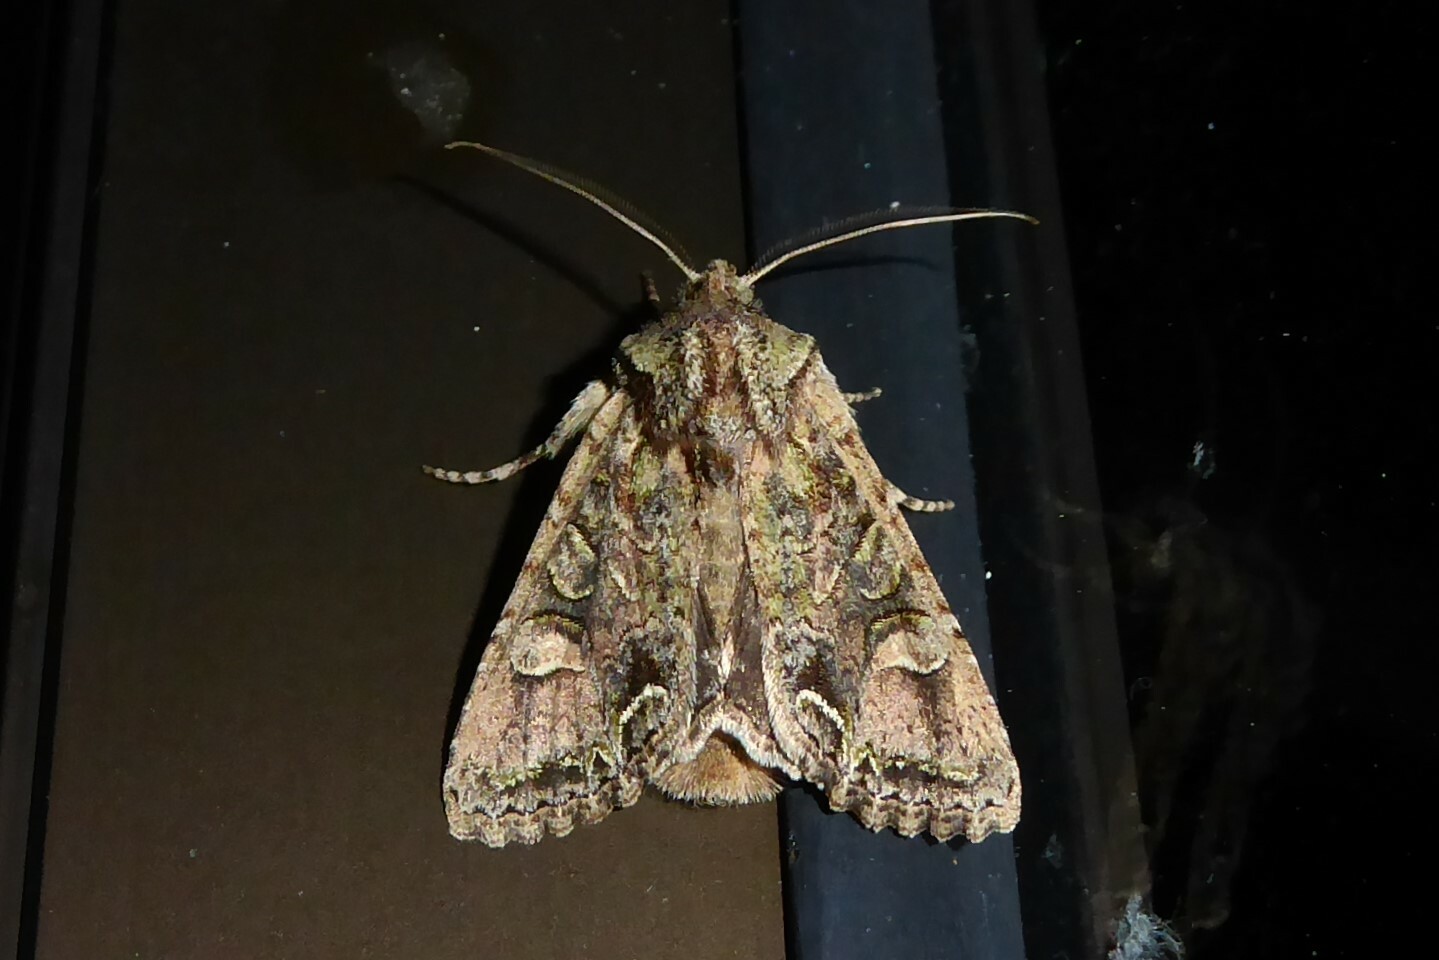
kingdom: Animalia
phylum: Arthropoda
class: Insecta
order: Lepidoptera
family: Noctuidae
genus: Ichneutica
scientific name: Ichneutica skelloni
